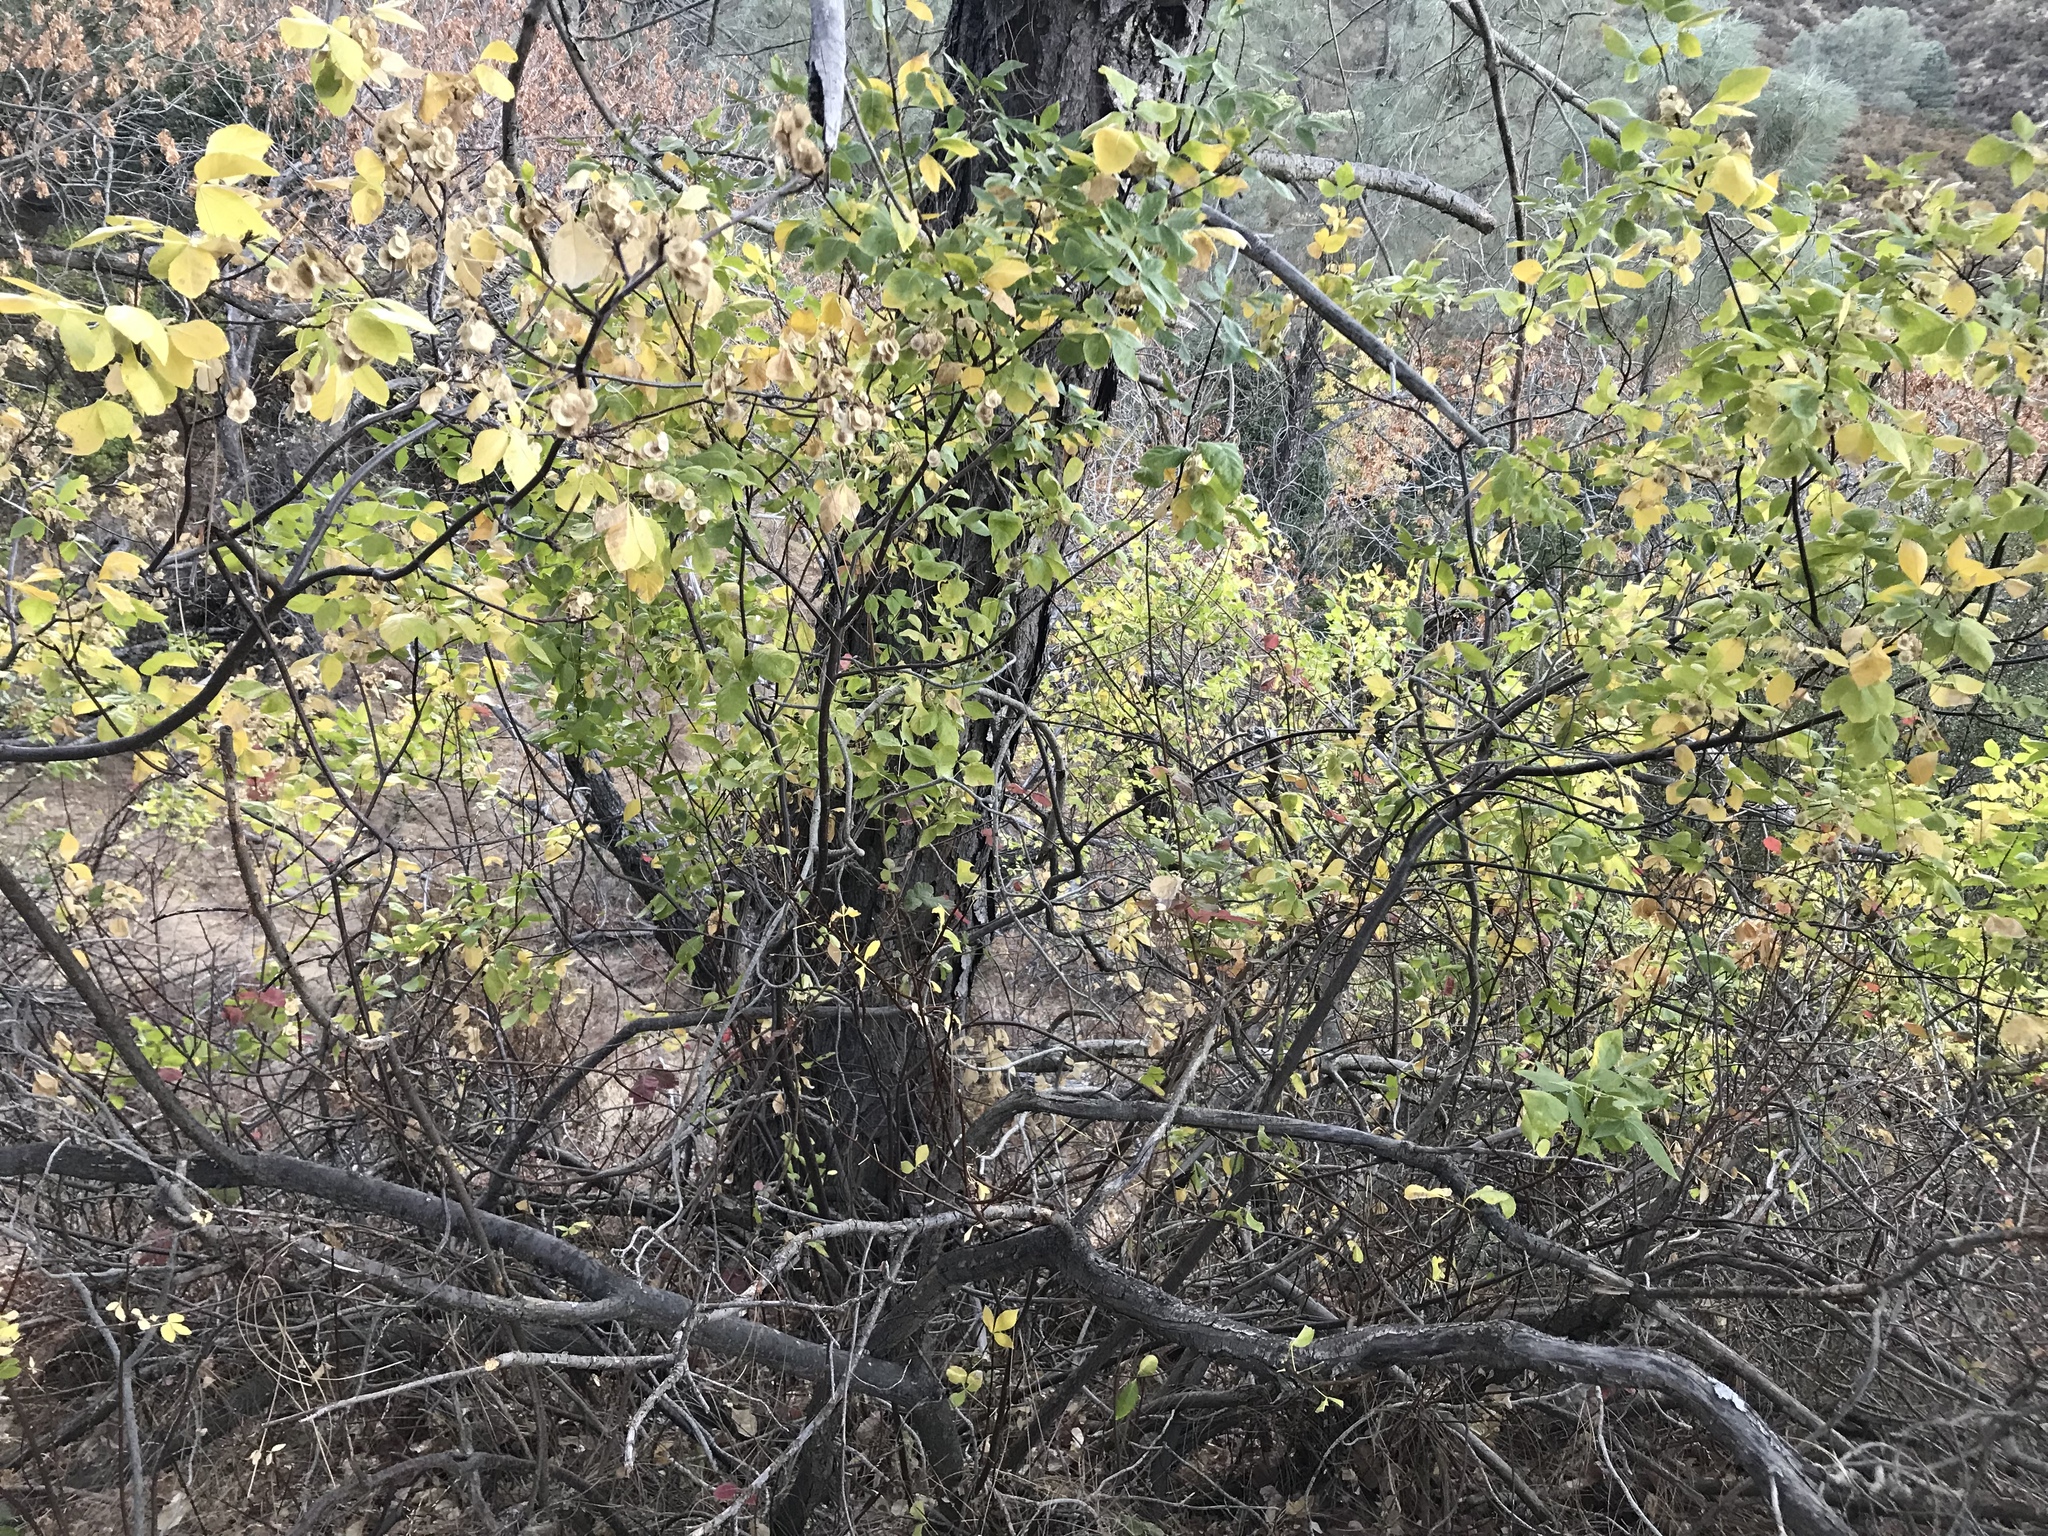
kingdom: Plantae
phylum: Tracheophyta
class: Magnoliopsida
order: Sapindales
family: Rutaceae
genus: Ptelea
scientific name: Ptelea crenulata
